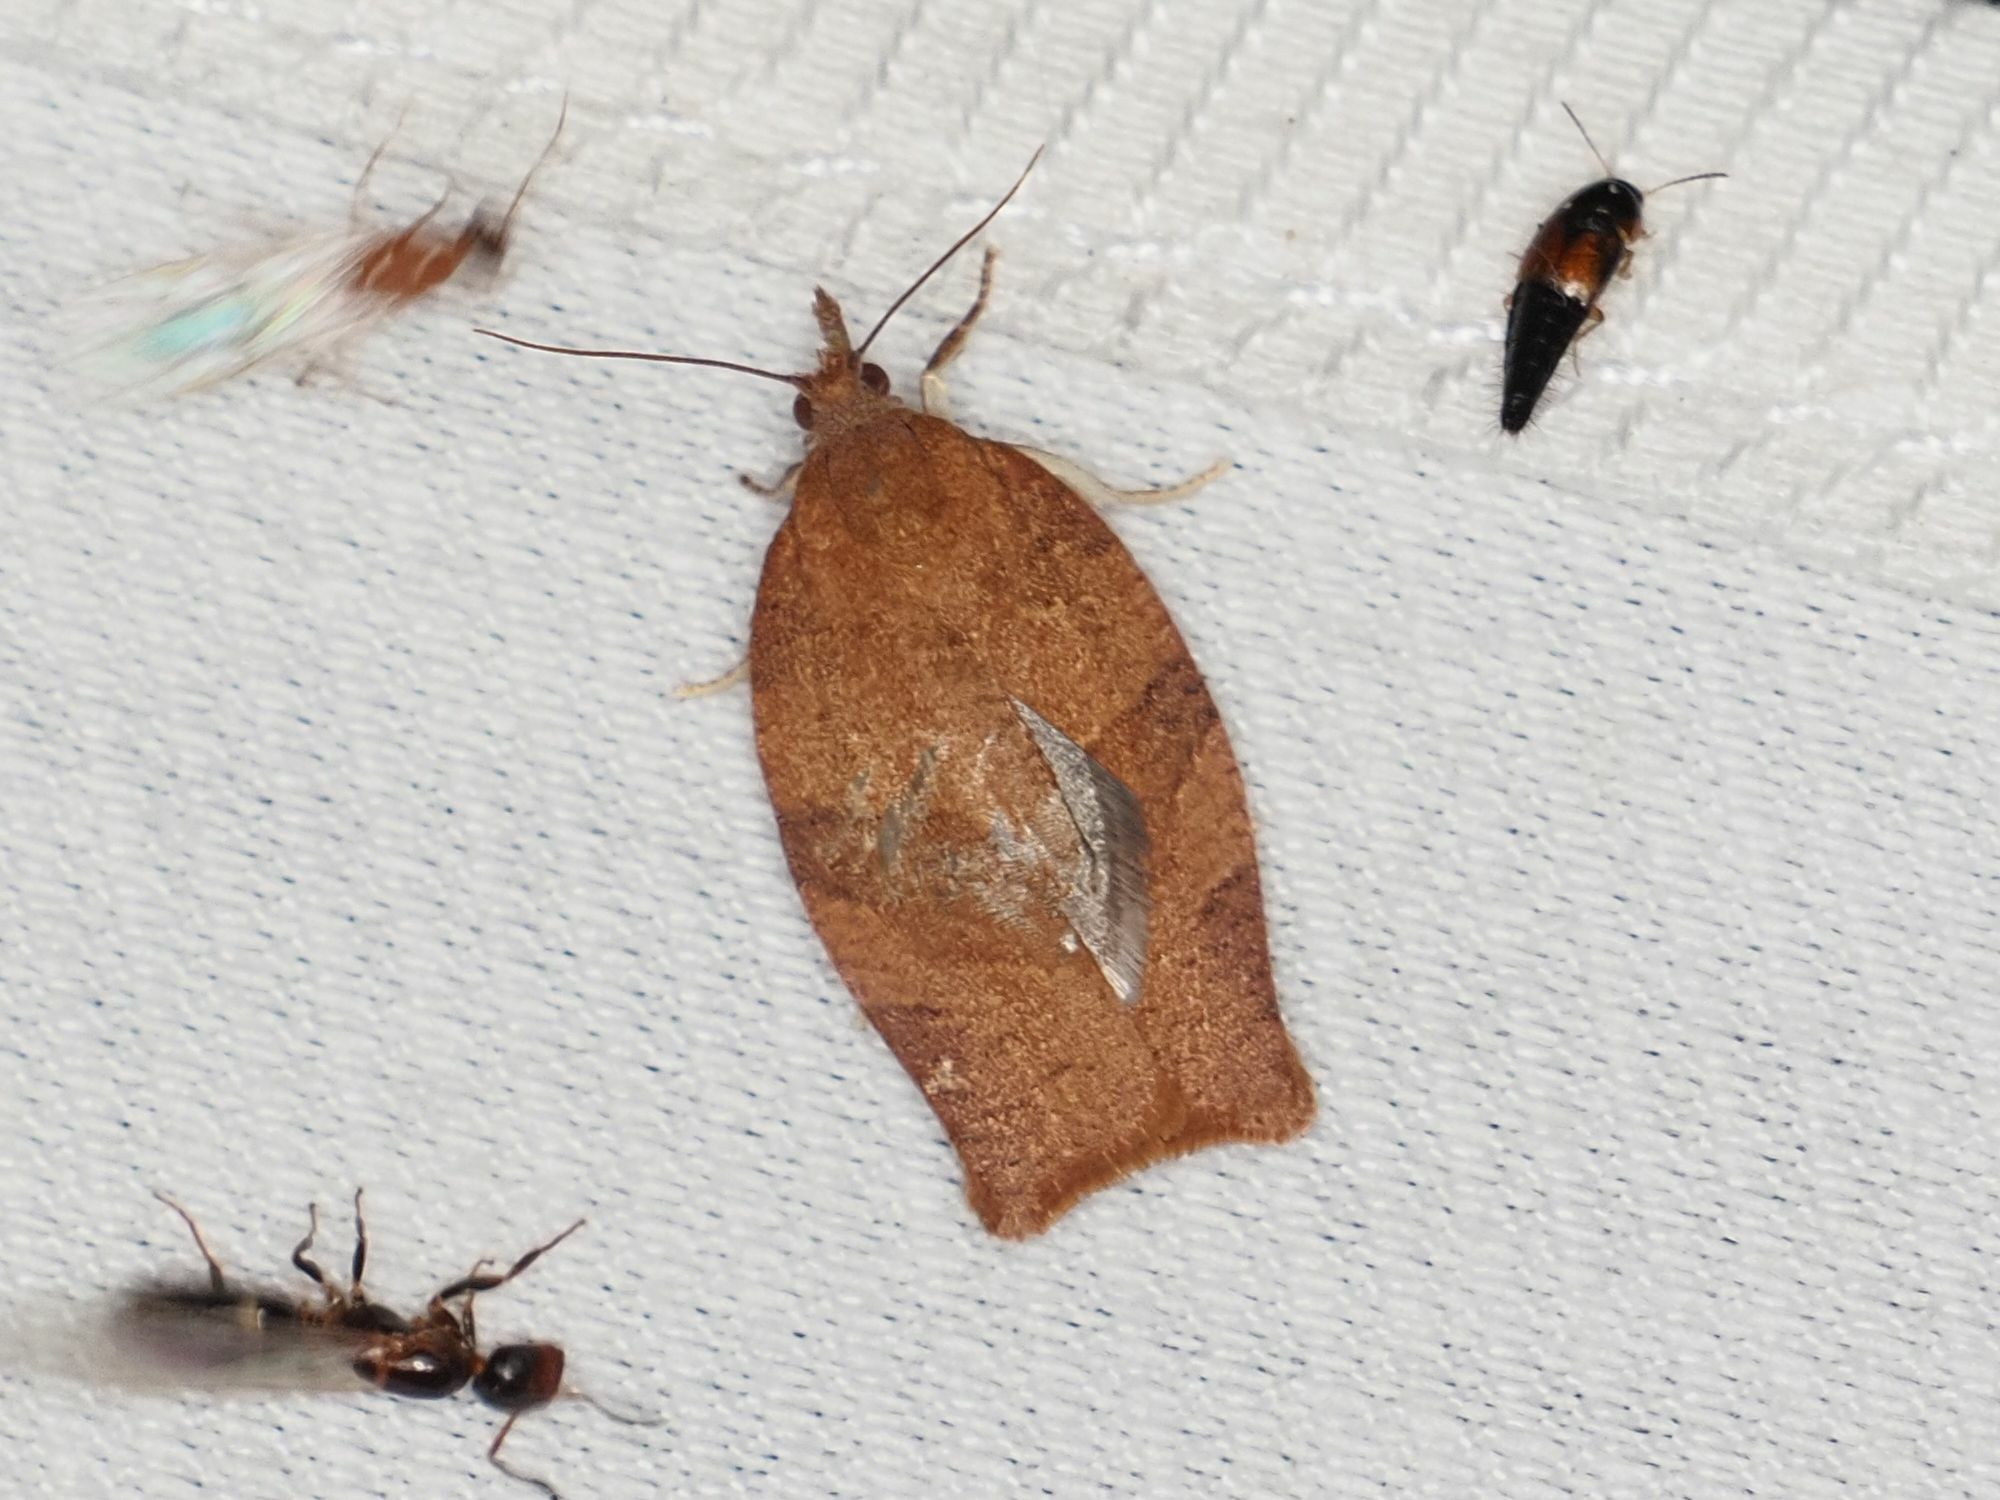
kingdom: Animalia
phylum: Arthropoda
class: Insecta
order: Lepidoptera
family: Tortricidae
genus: Pandemis
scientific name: Pandemis heparana
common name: Dark fruit-tree tortrix
